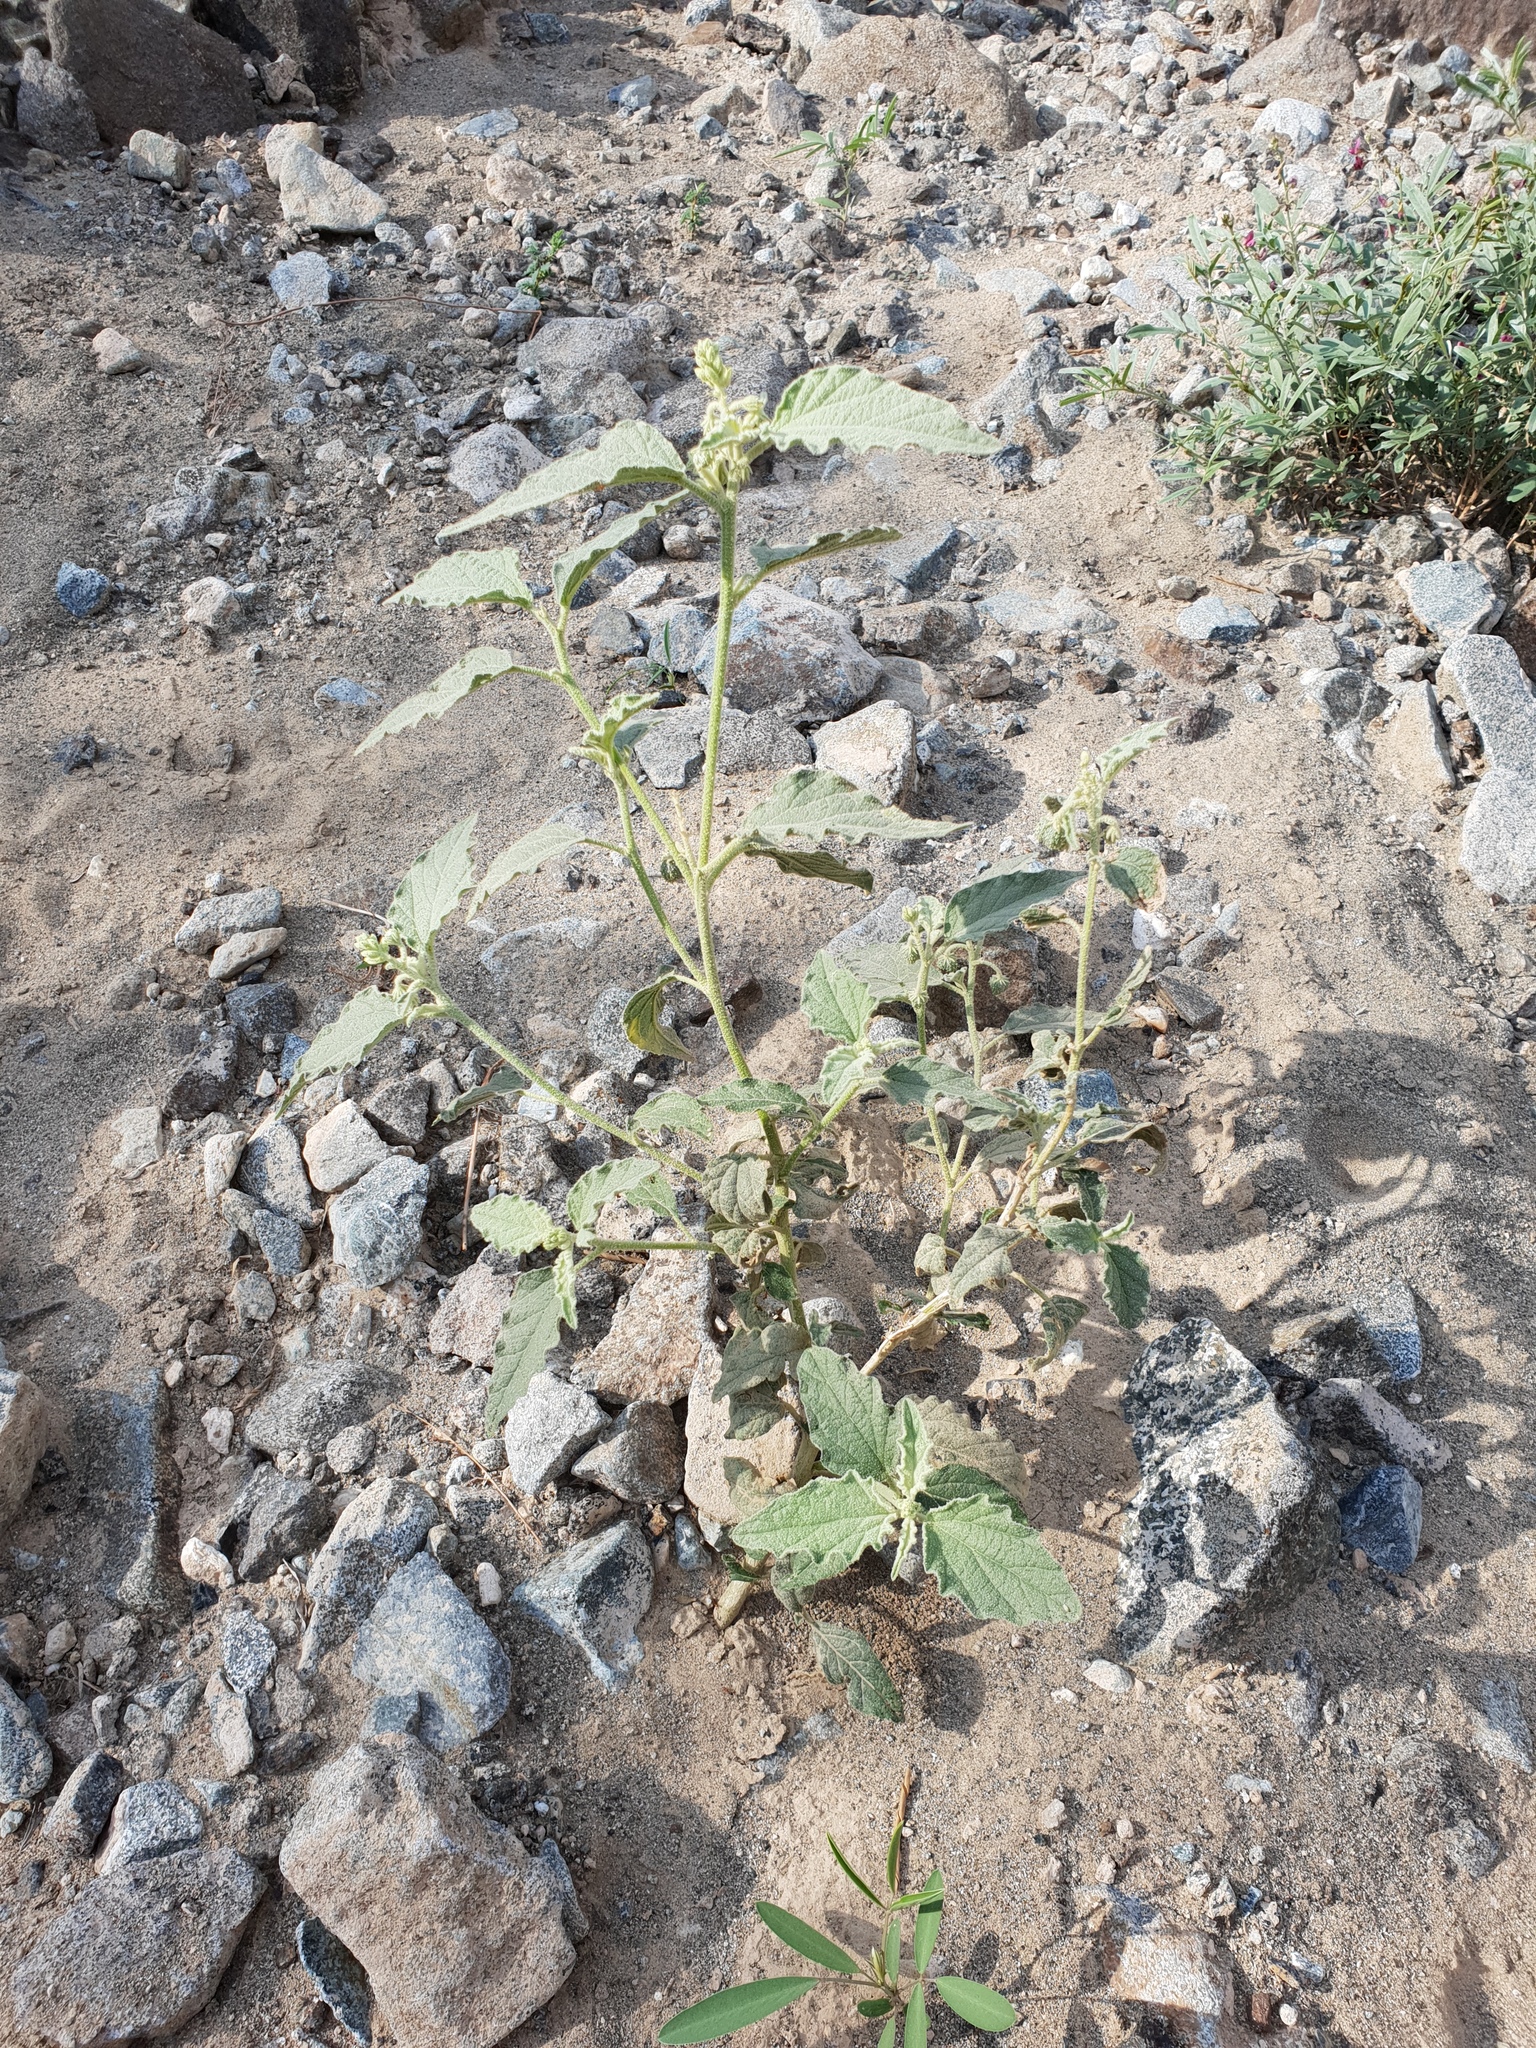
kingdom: Plantae
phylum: Tracheophyta
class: Magnoliopsida
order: Malpighiales
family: Euphorbiaceae
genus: Chrozophora
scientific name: Chrozophora oblongifolia
